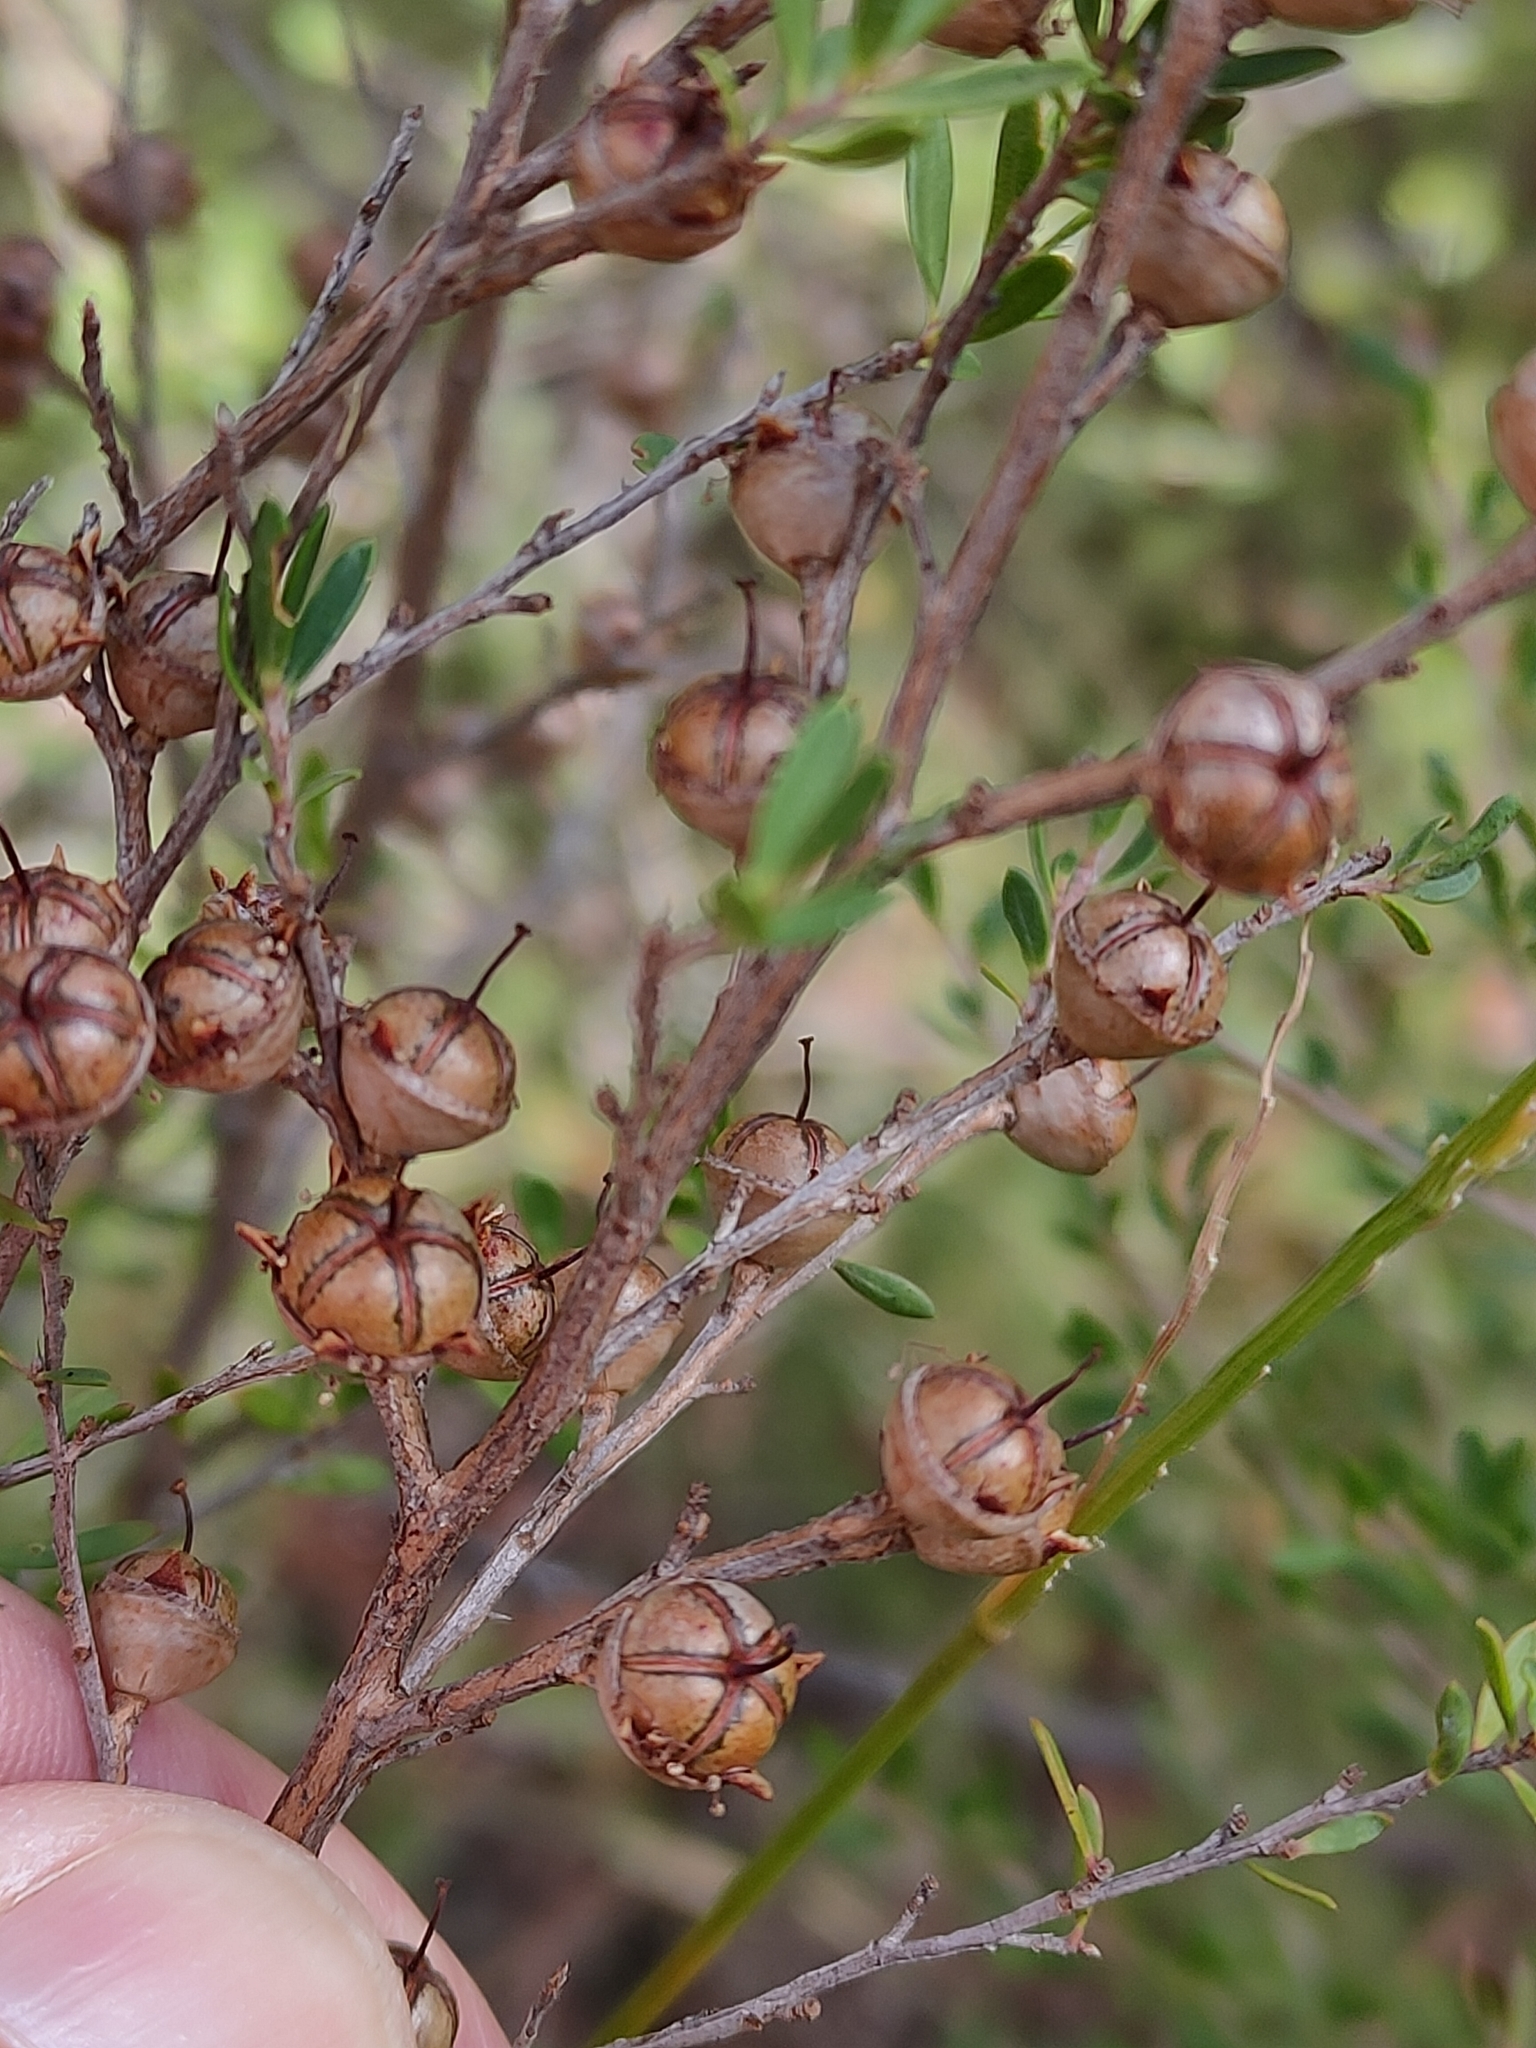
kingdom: Plantae
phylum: Tracheophyta
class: Magnoliopsida
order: Myrtales
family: Myrtaceae
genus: Leptospermum
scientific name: Leptospermum polygalifolium
